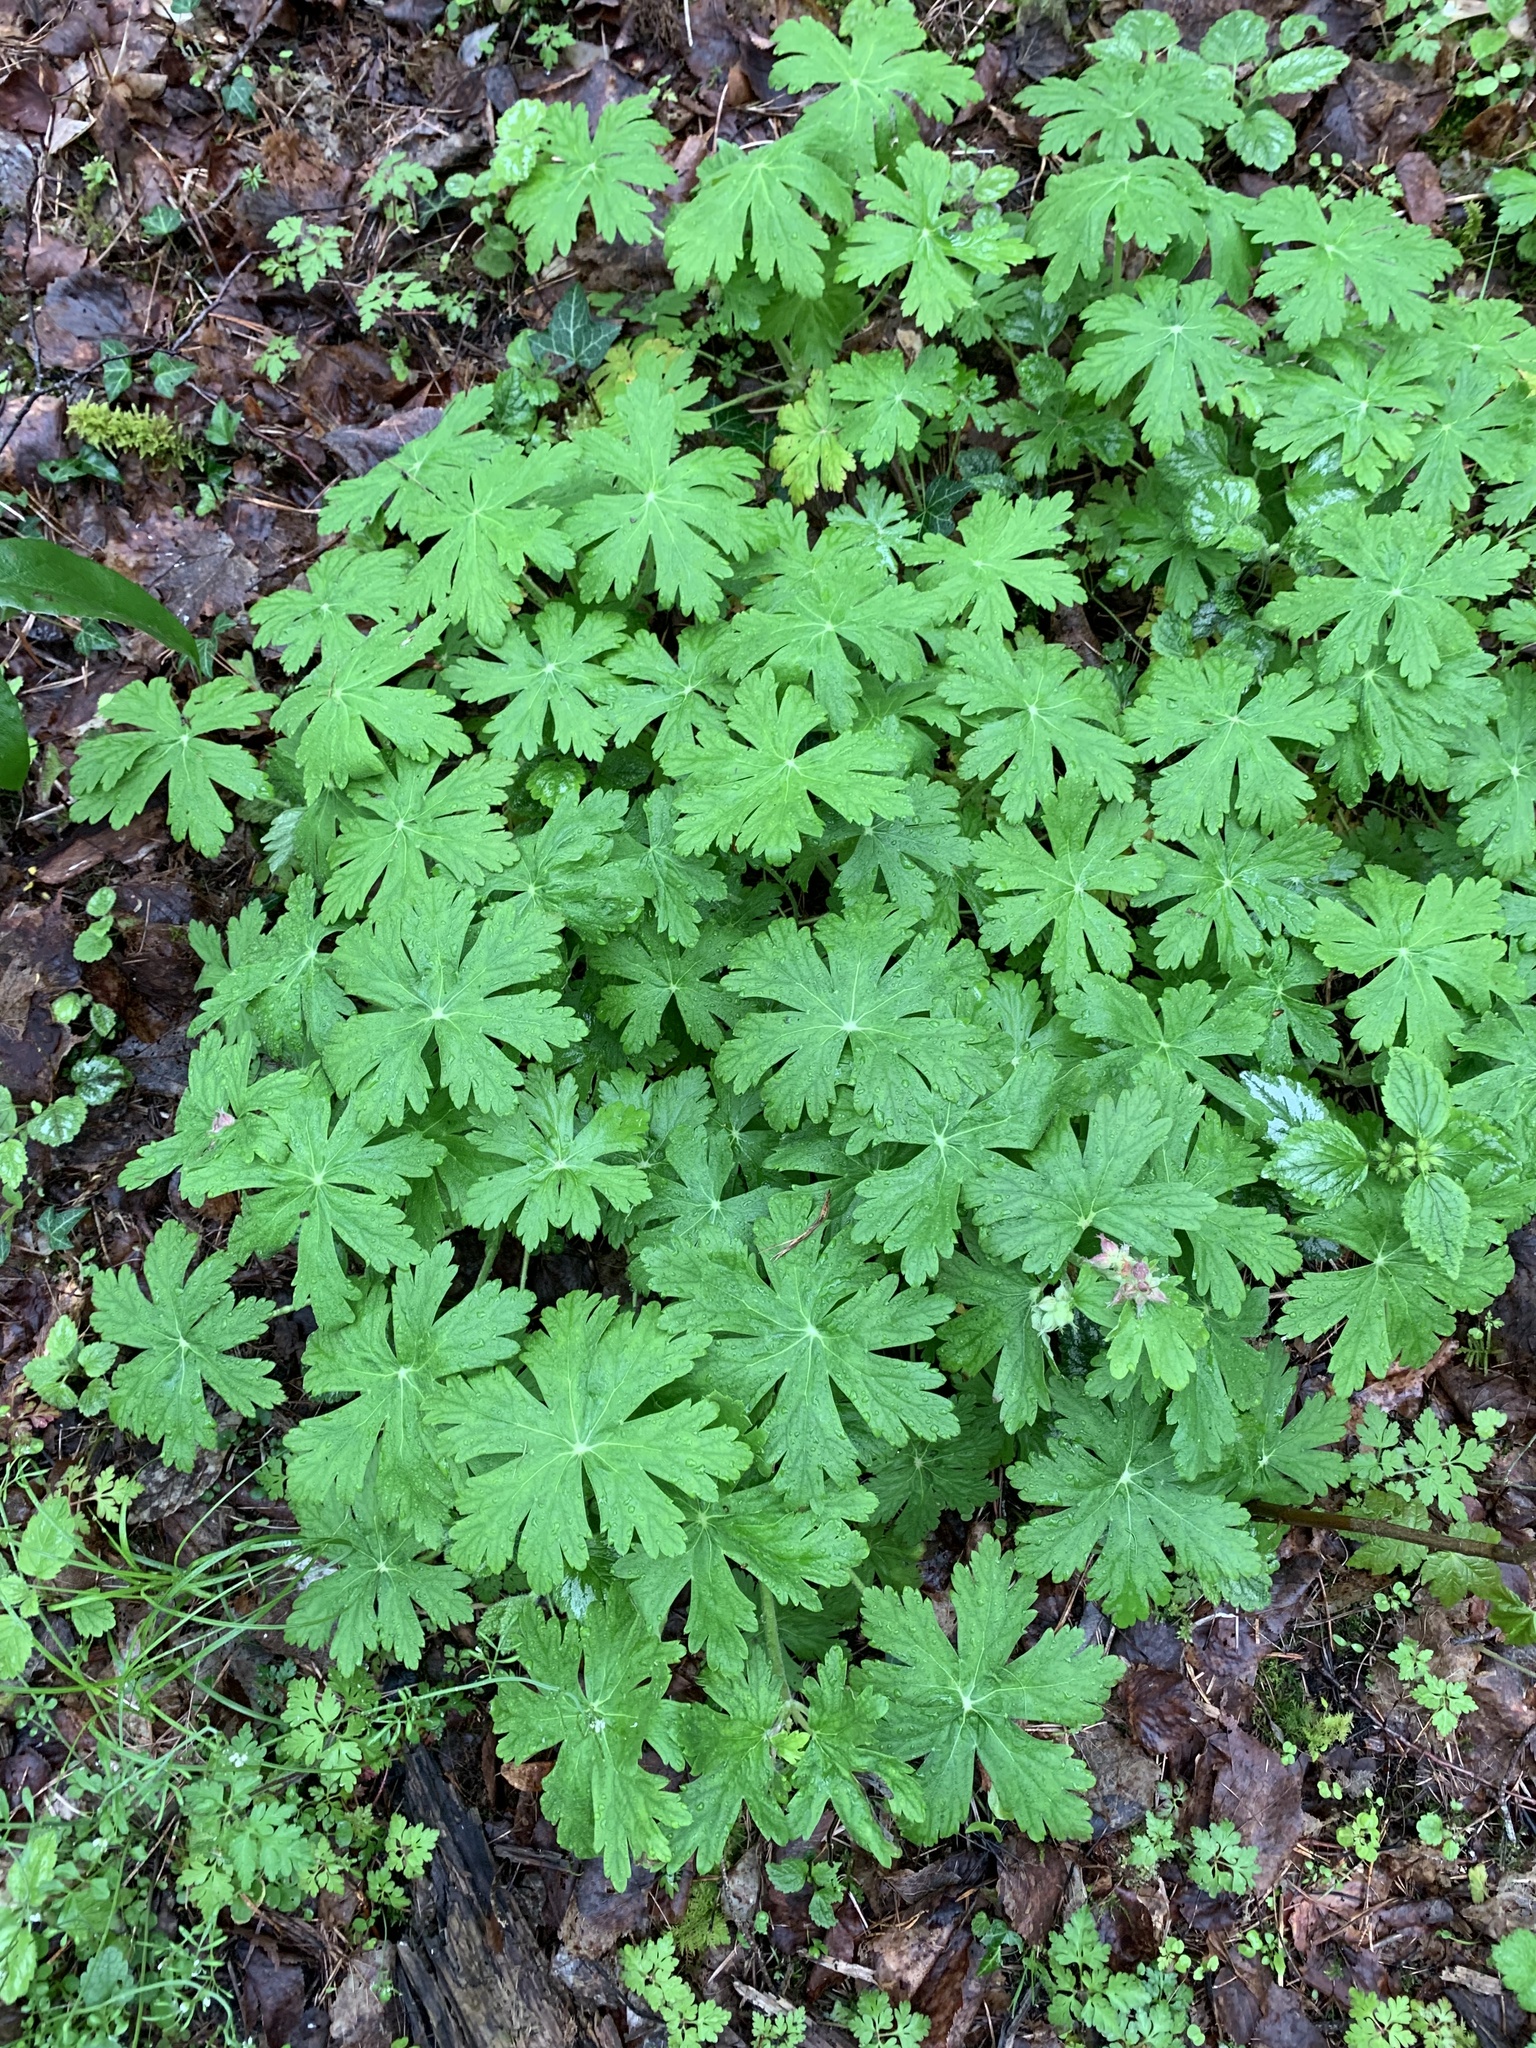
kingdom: Plantae
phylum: Tracheophyta
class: Magnoliopsida
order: Geraniales
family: Geraniaceae
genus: Geranium
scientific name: Geranium macrorrhizum
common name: Rock crane's-bill
